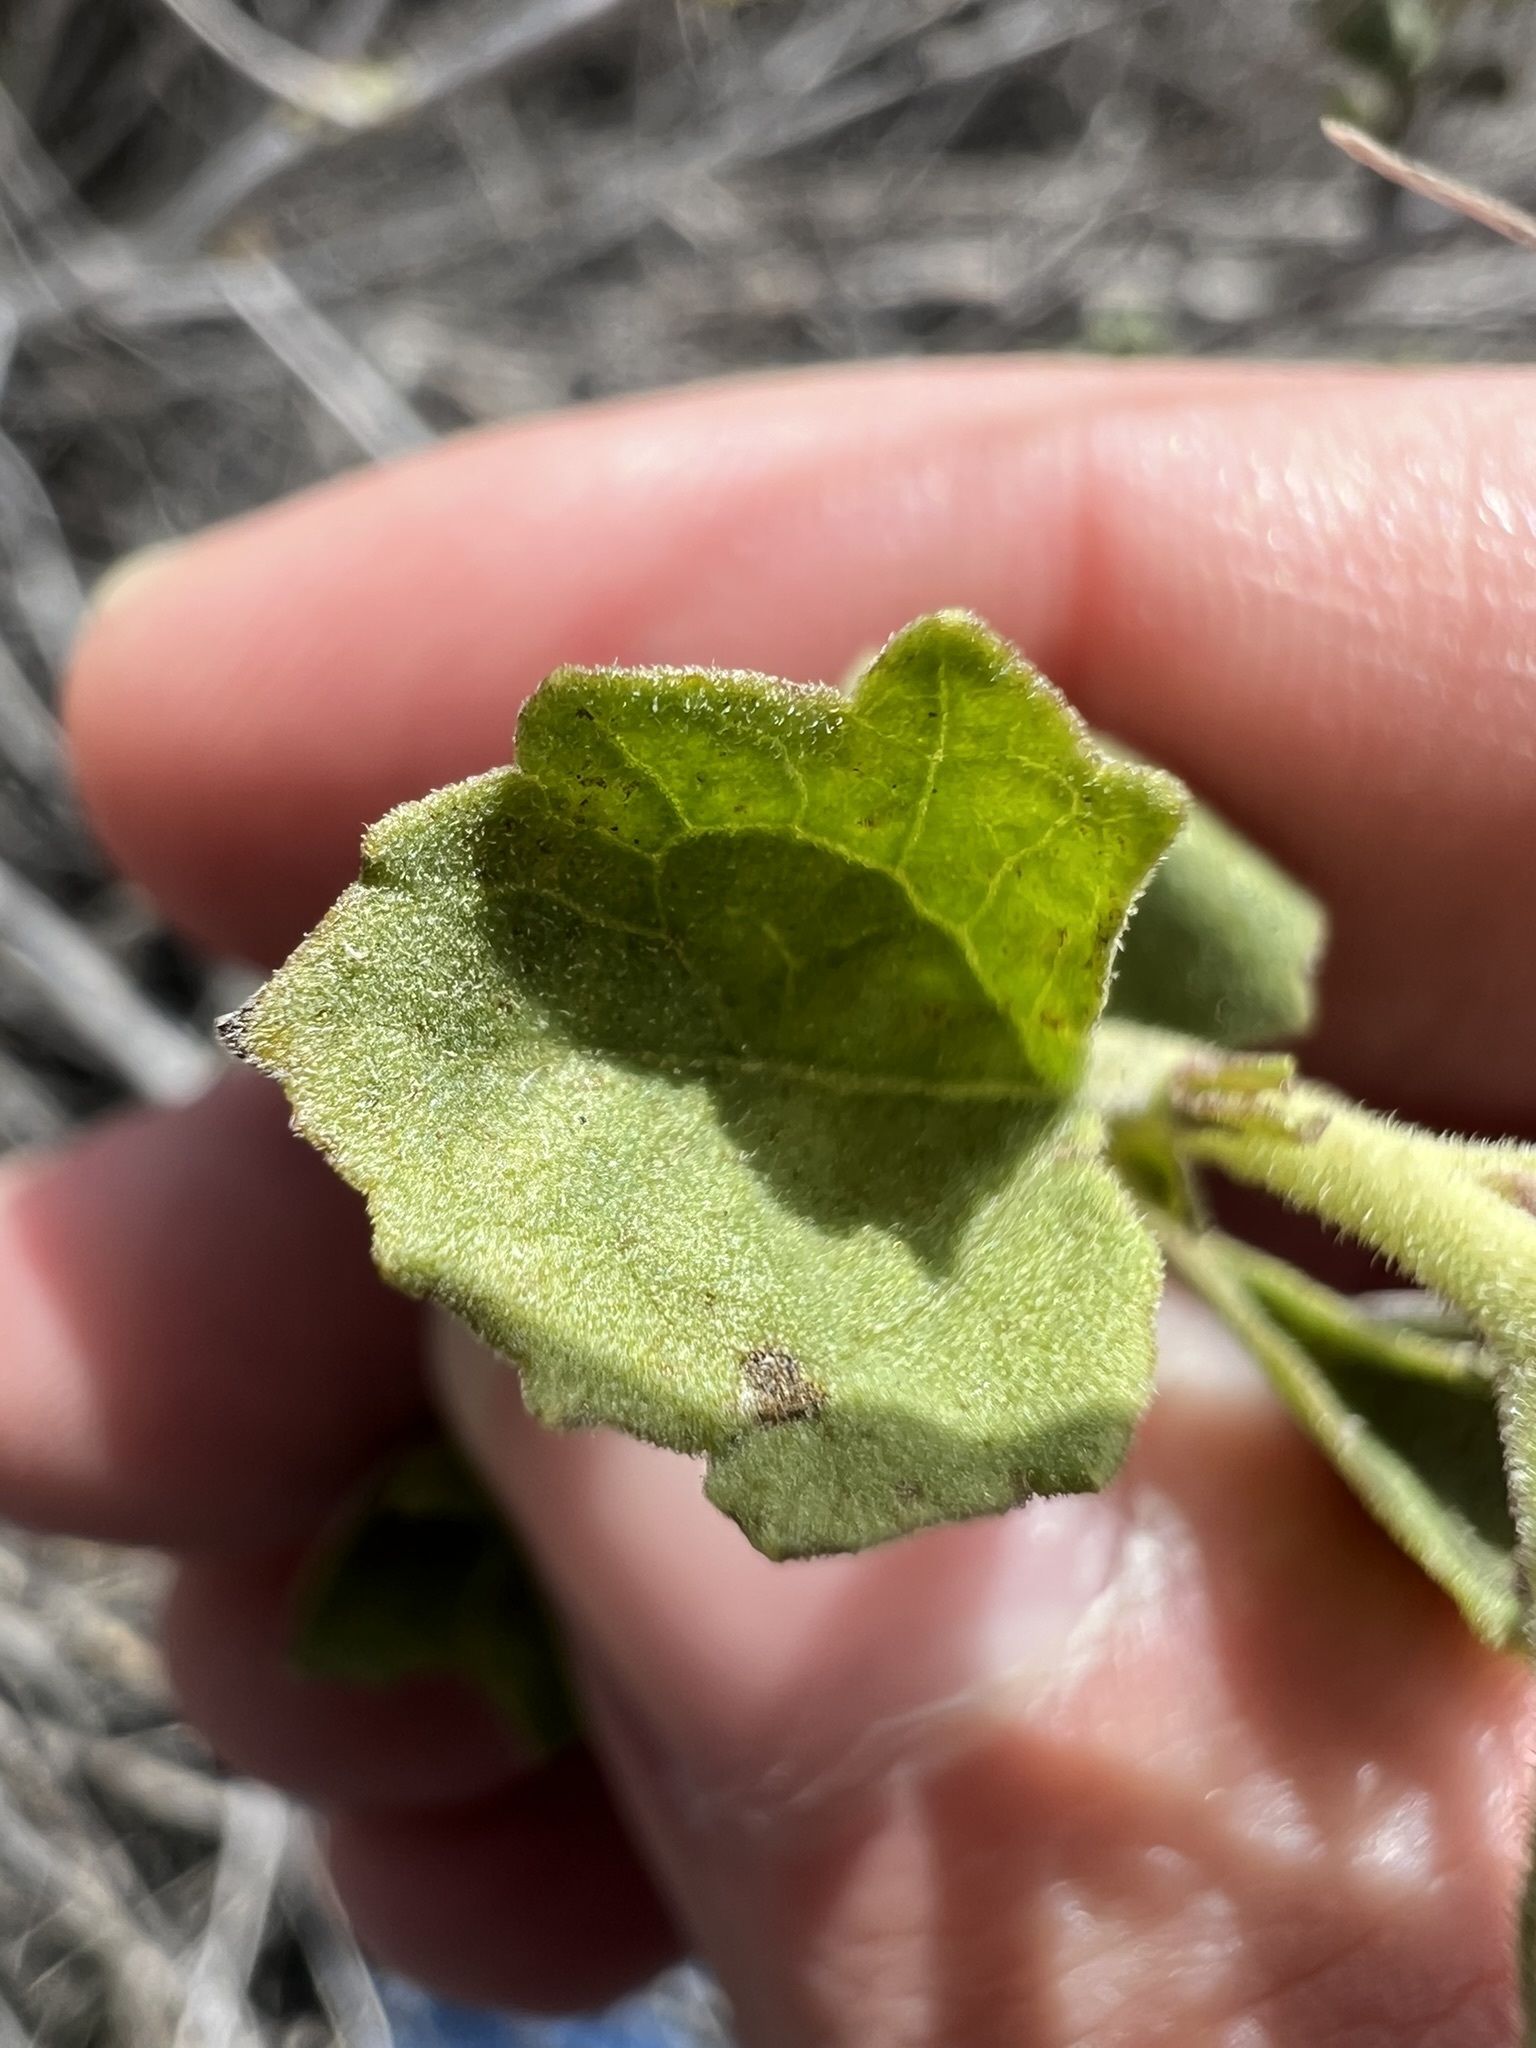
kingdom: Plantae
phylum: Tracheophyta
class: Magnoliopsida
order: Asterales
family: Asteraceae
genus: Brickellia
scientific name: Brickellia desertorum
